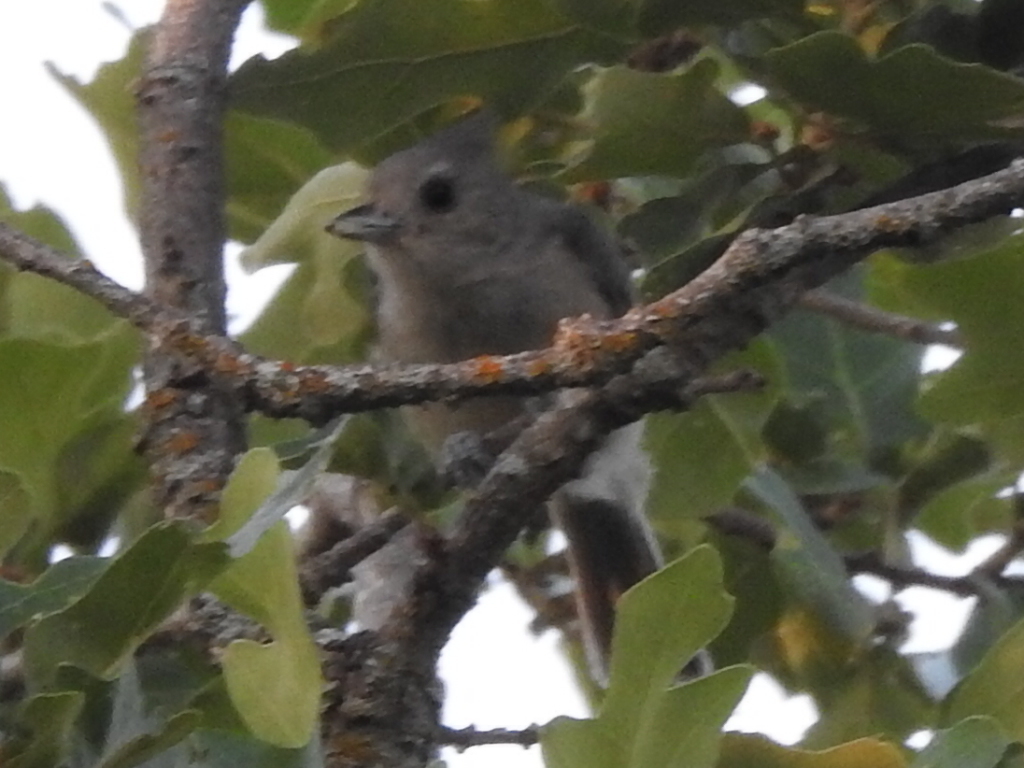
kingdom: Animalia
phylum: Chordata
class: Aves
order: Passeriformes
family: Paridae
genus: Baeolophus
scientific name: Baeolophus atricristatus
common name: Black-crested titmouse
